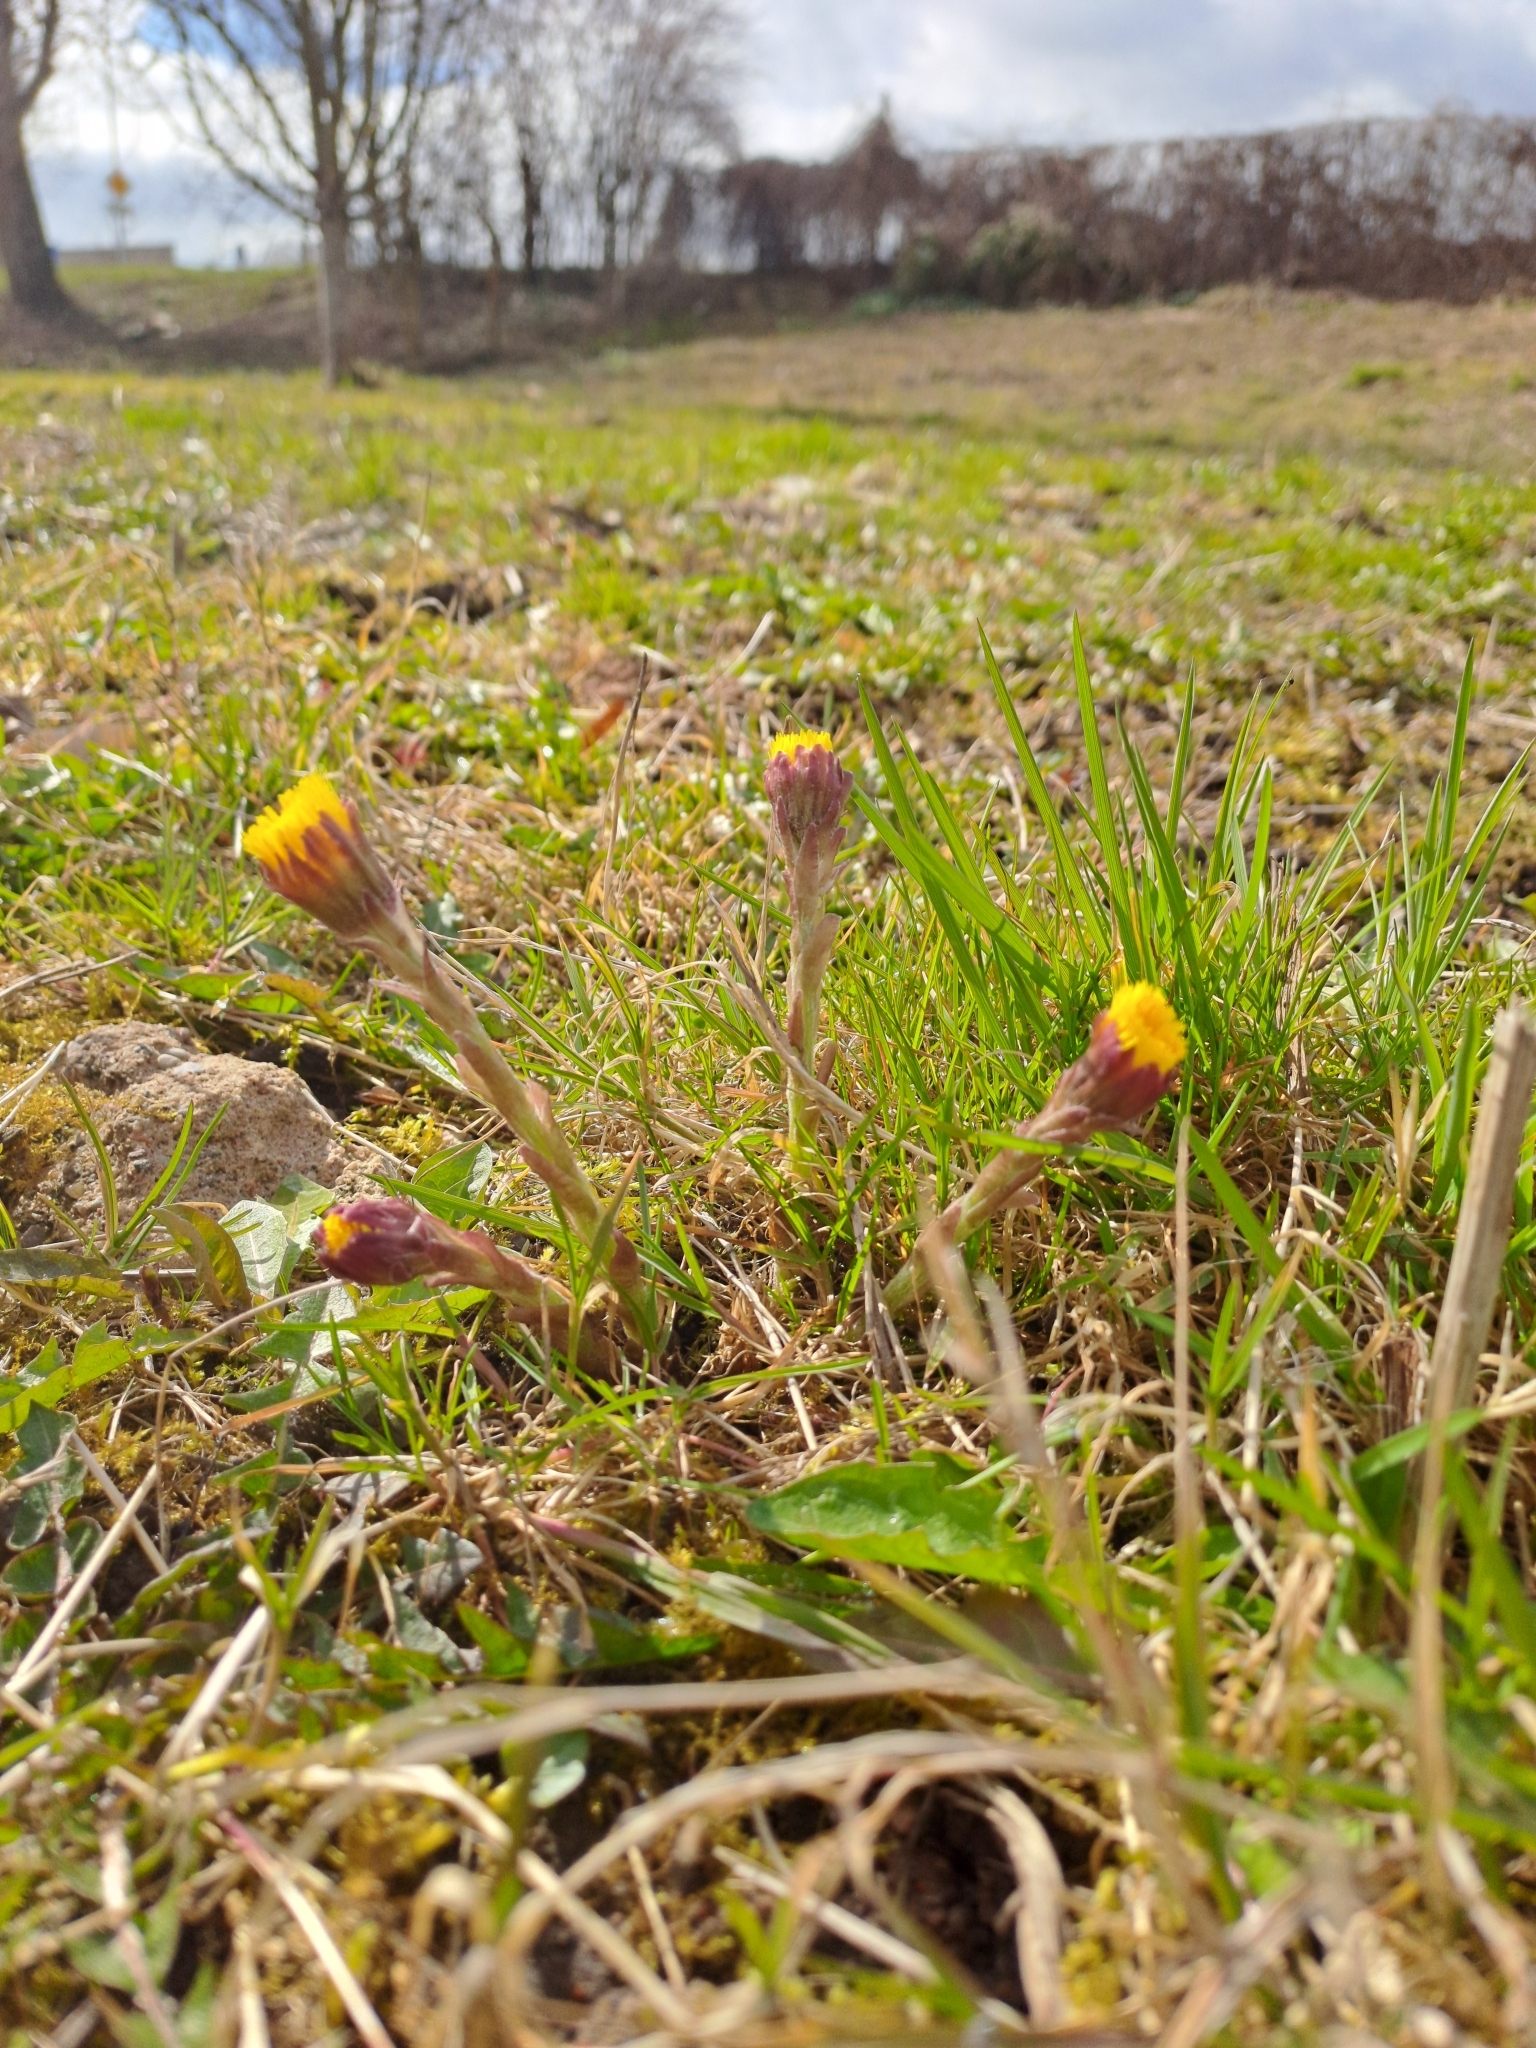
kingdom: Plantae
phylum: Tracheophyta
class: Magnoliopsida
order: Asterales
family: Asteraceae
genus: Tussilago
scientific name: Tussilago farfara
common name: Coltsfoot
